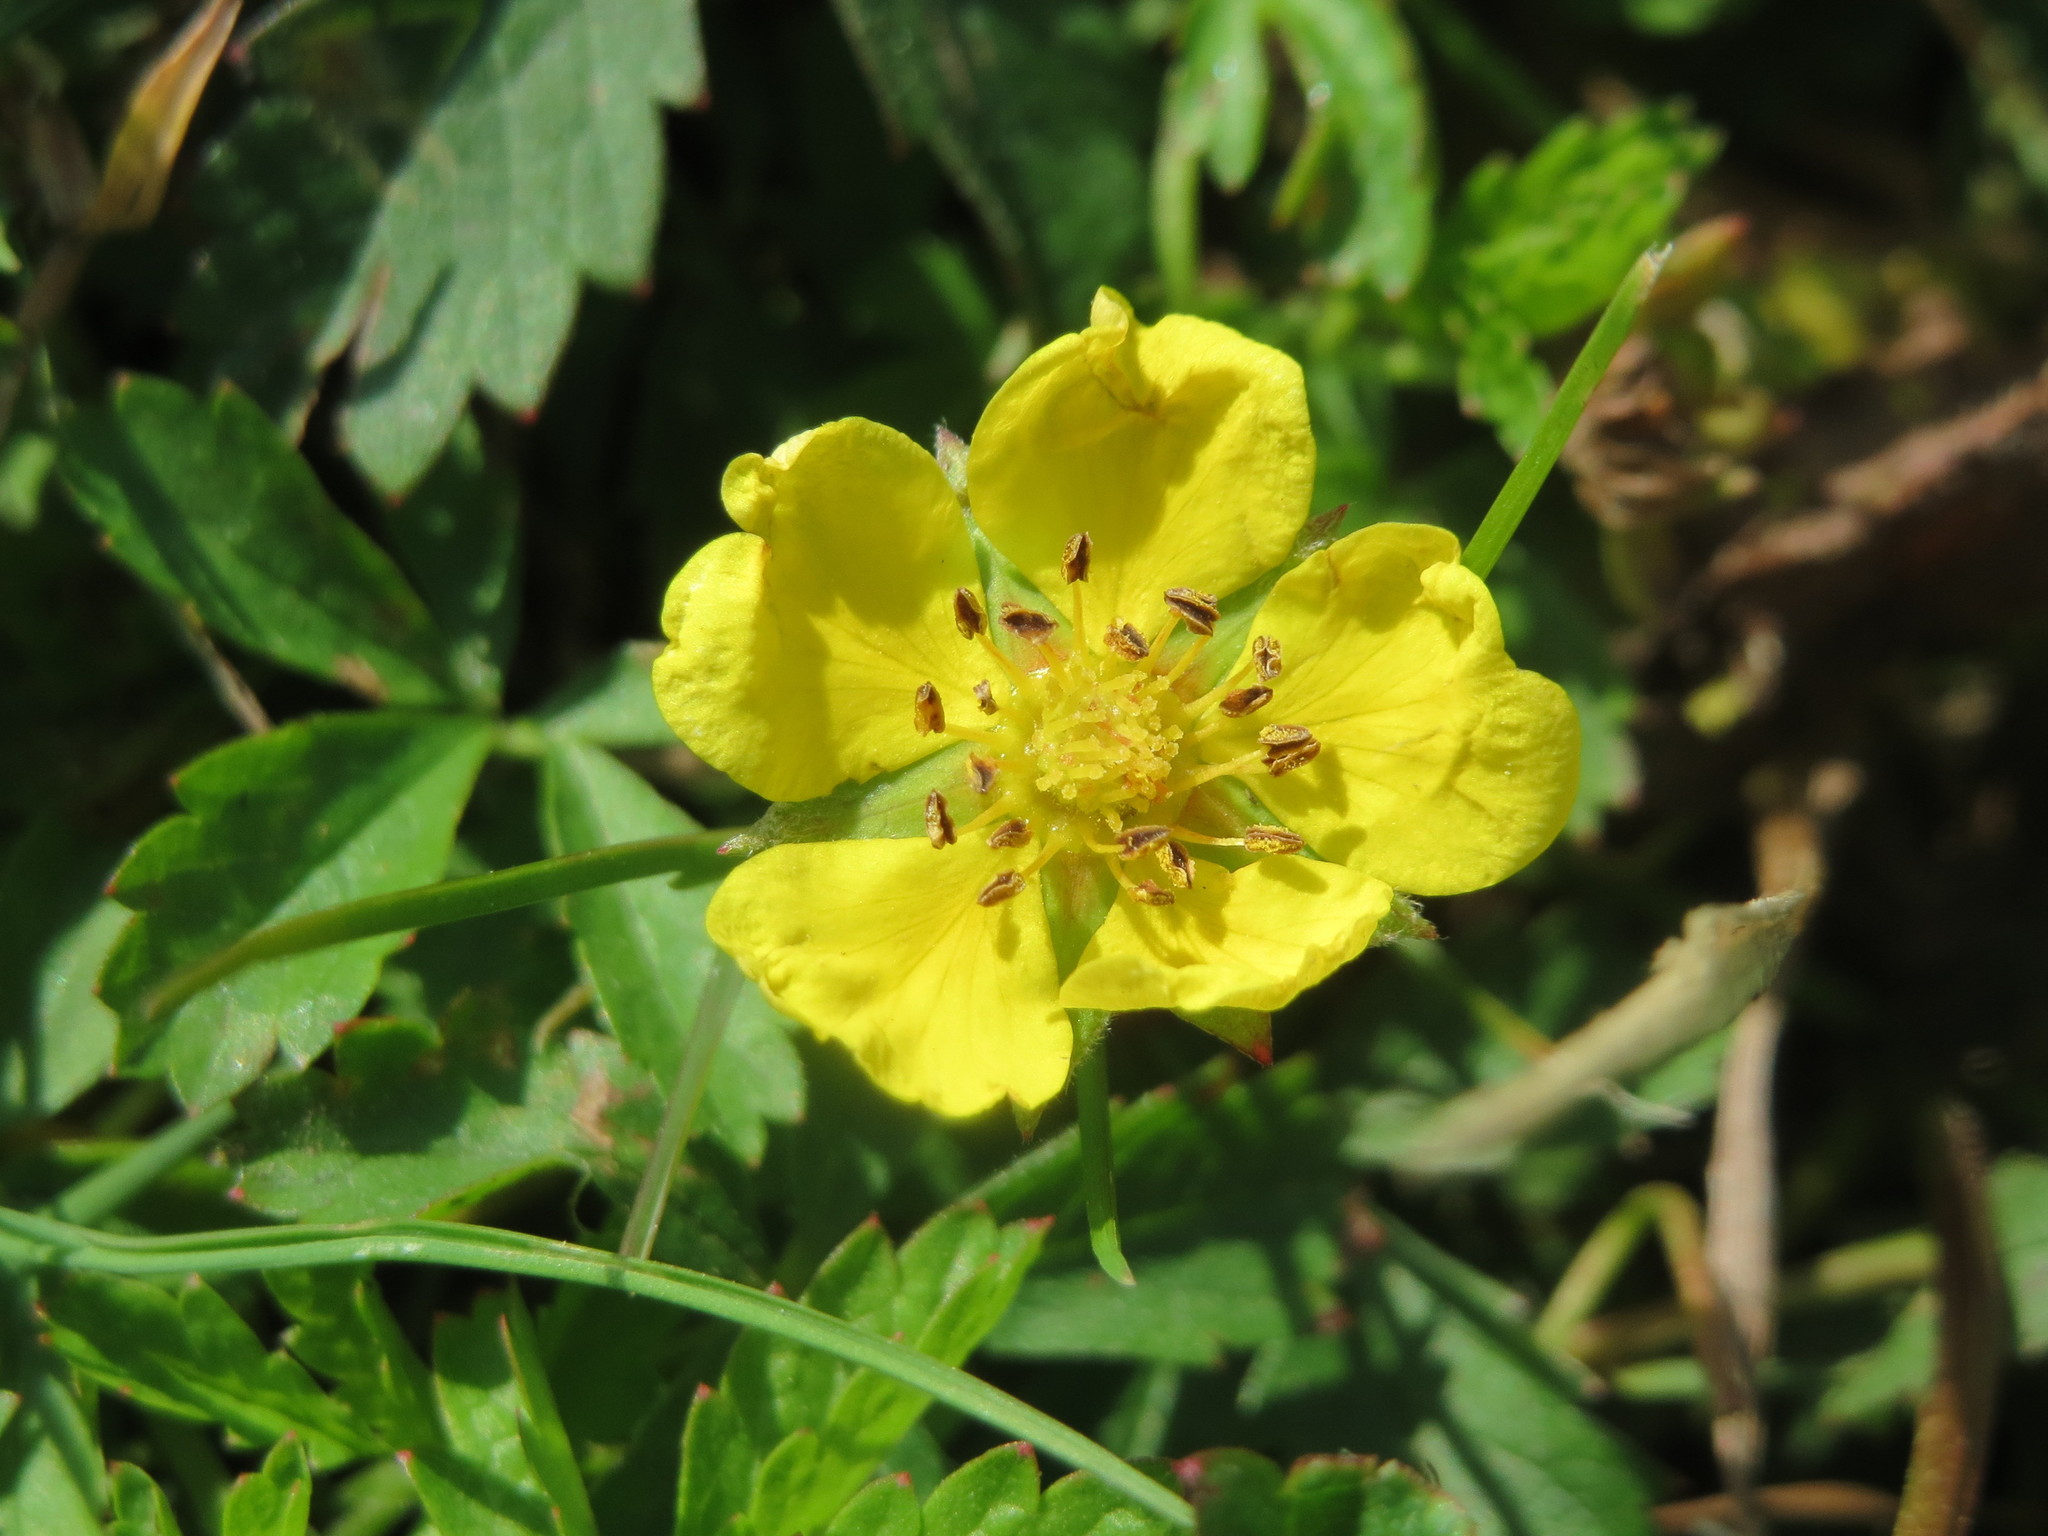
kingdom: Plantae
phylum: Tracheophyta
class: Magnoliopsida
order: Rosales
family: Rosaceae
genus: Potentilla
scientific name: Potentilla reptans
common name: Creeping cinquefoil
